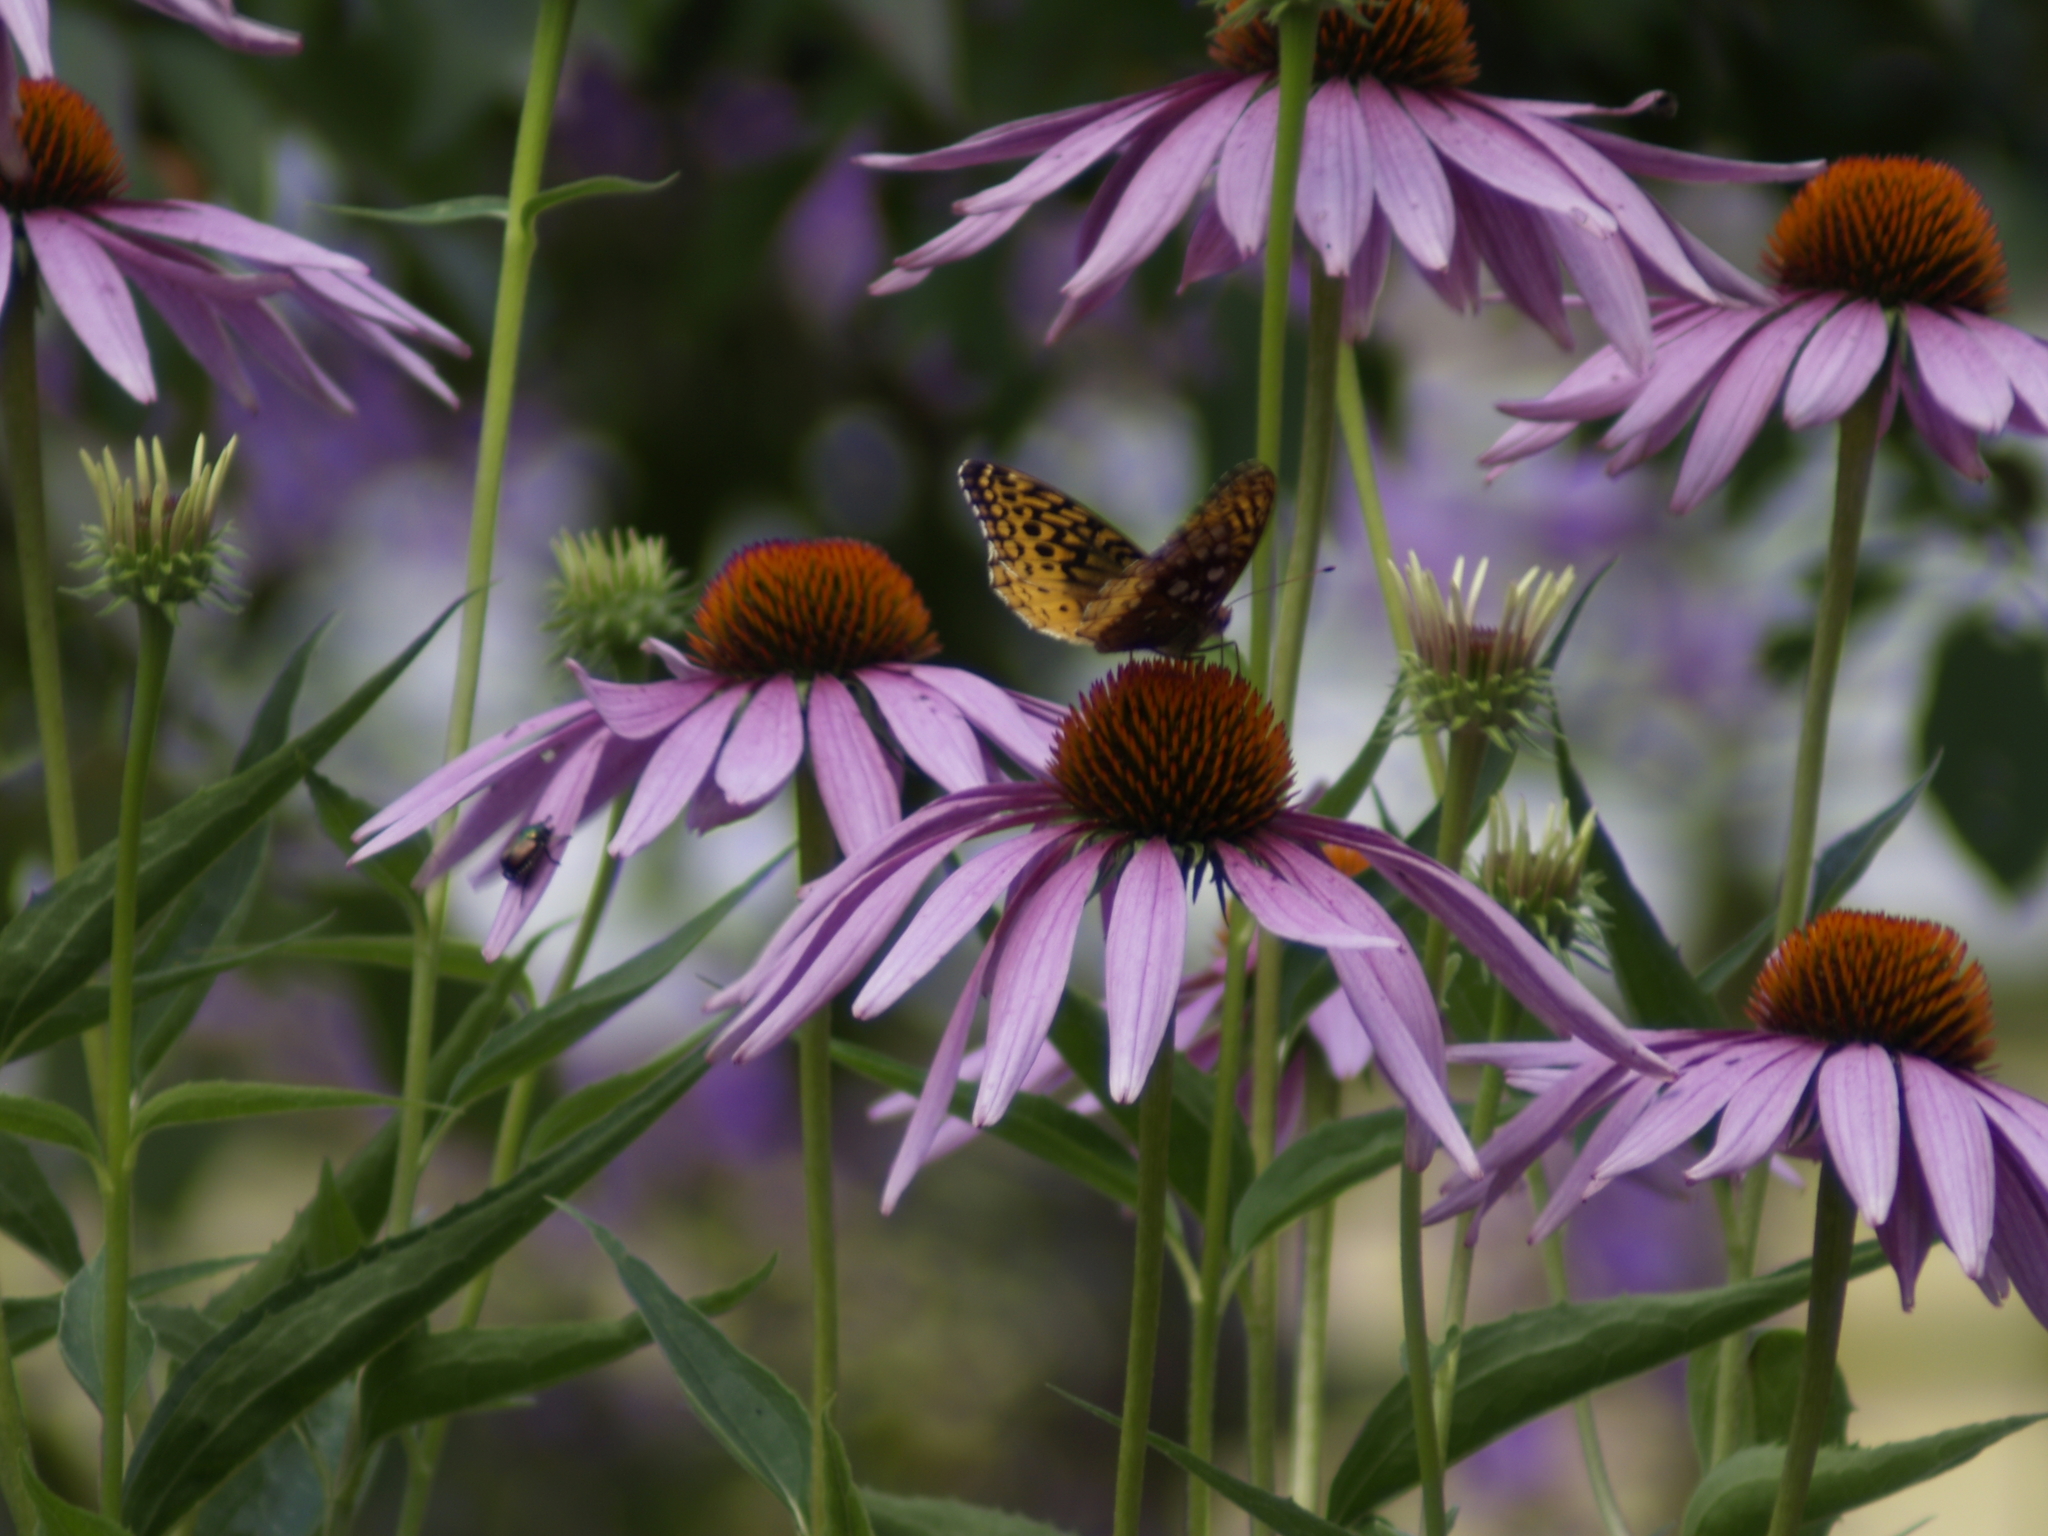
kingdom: Animalia
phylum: Arthropoda
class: Insecta
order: Lepidoptera
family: Nymphalidae
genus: Speyeria
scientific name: Speyeria cybele
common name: Great spangled fritillary
